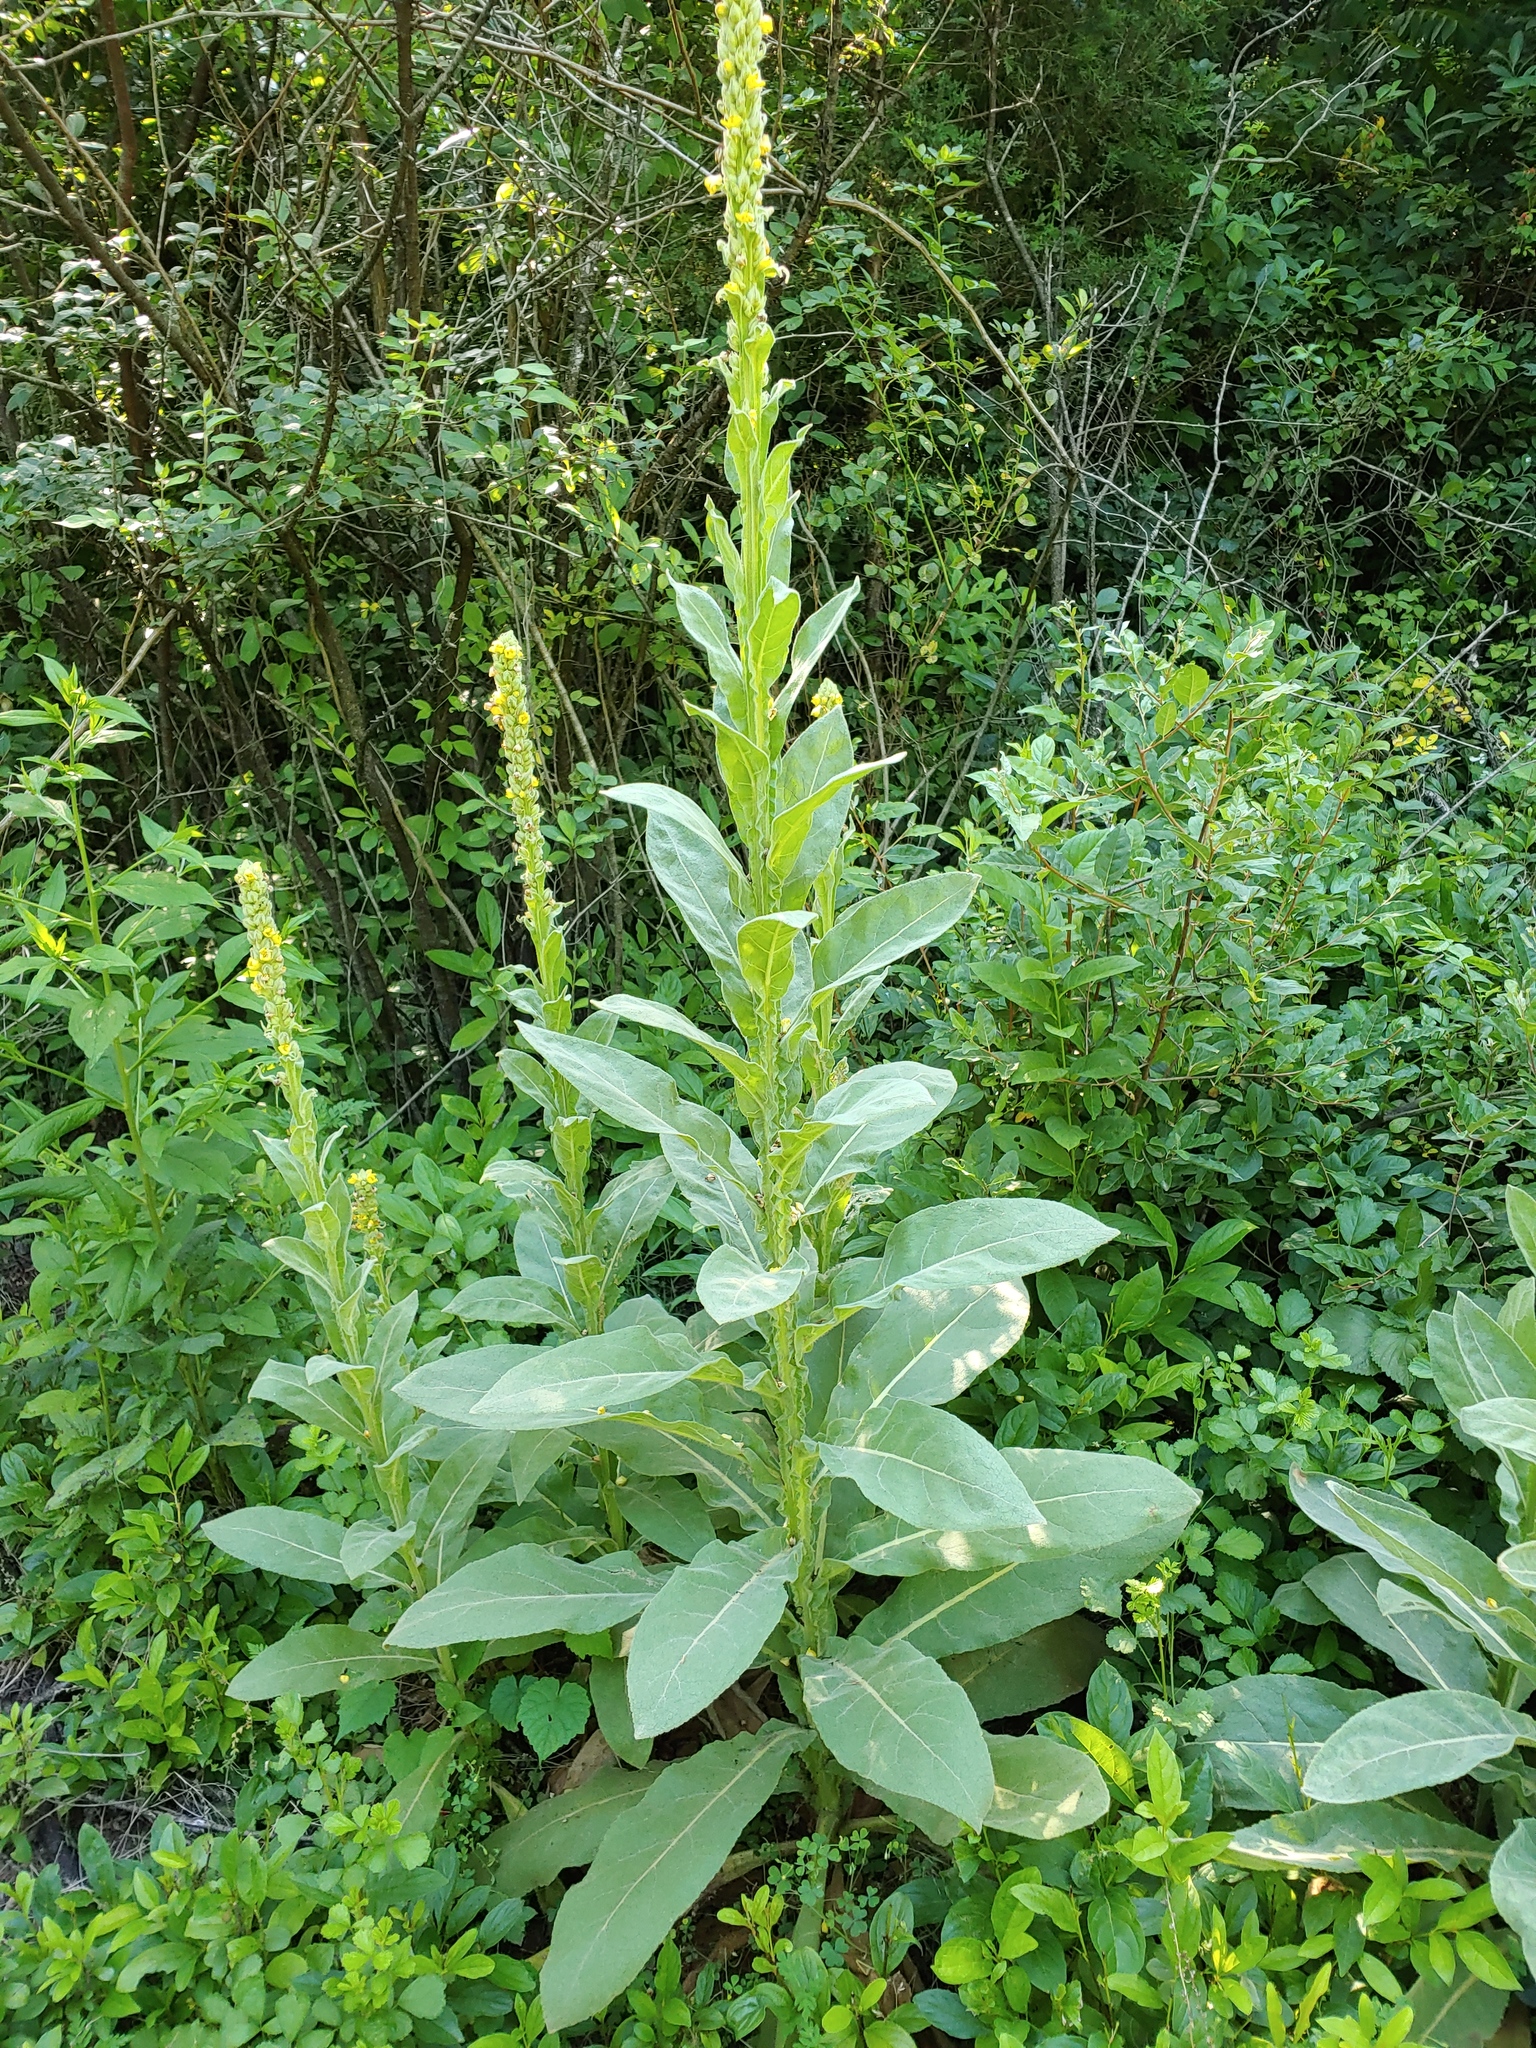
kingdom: Plantae
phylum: Tracheophyta
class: Magnoliopsida
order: Lamiales
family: Scrophulariaceae
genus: Verbascum
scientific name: Verbascum thapsus
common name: Common mullein
